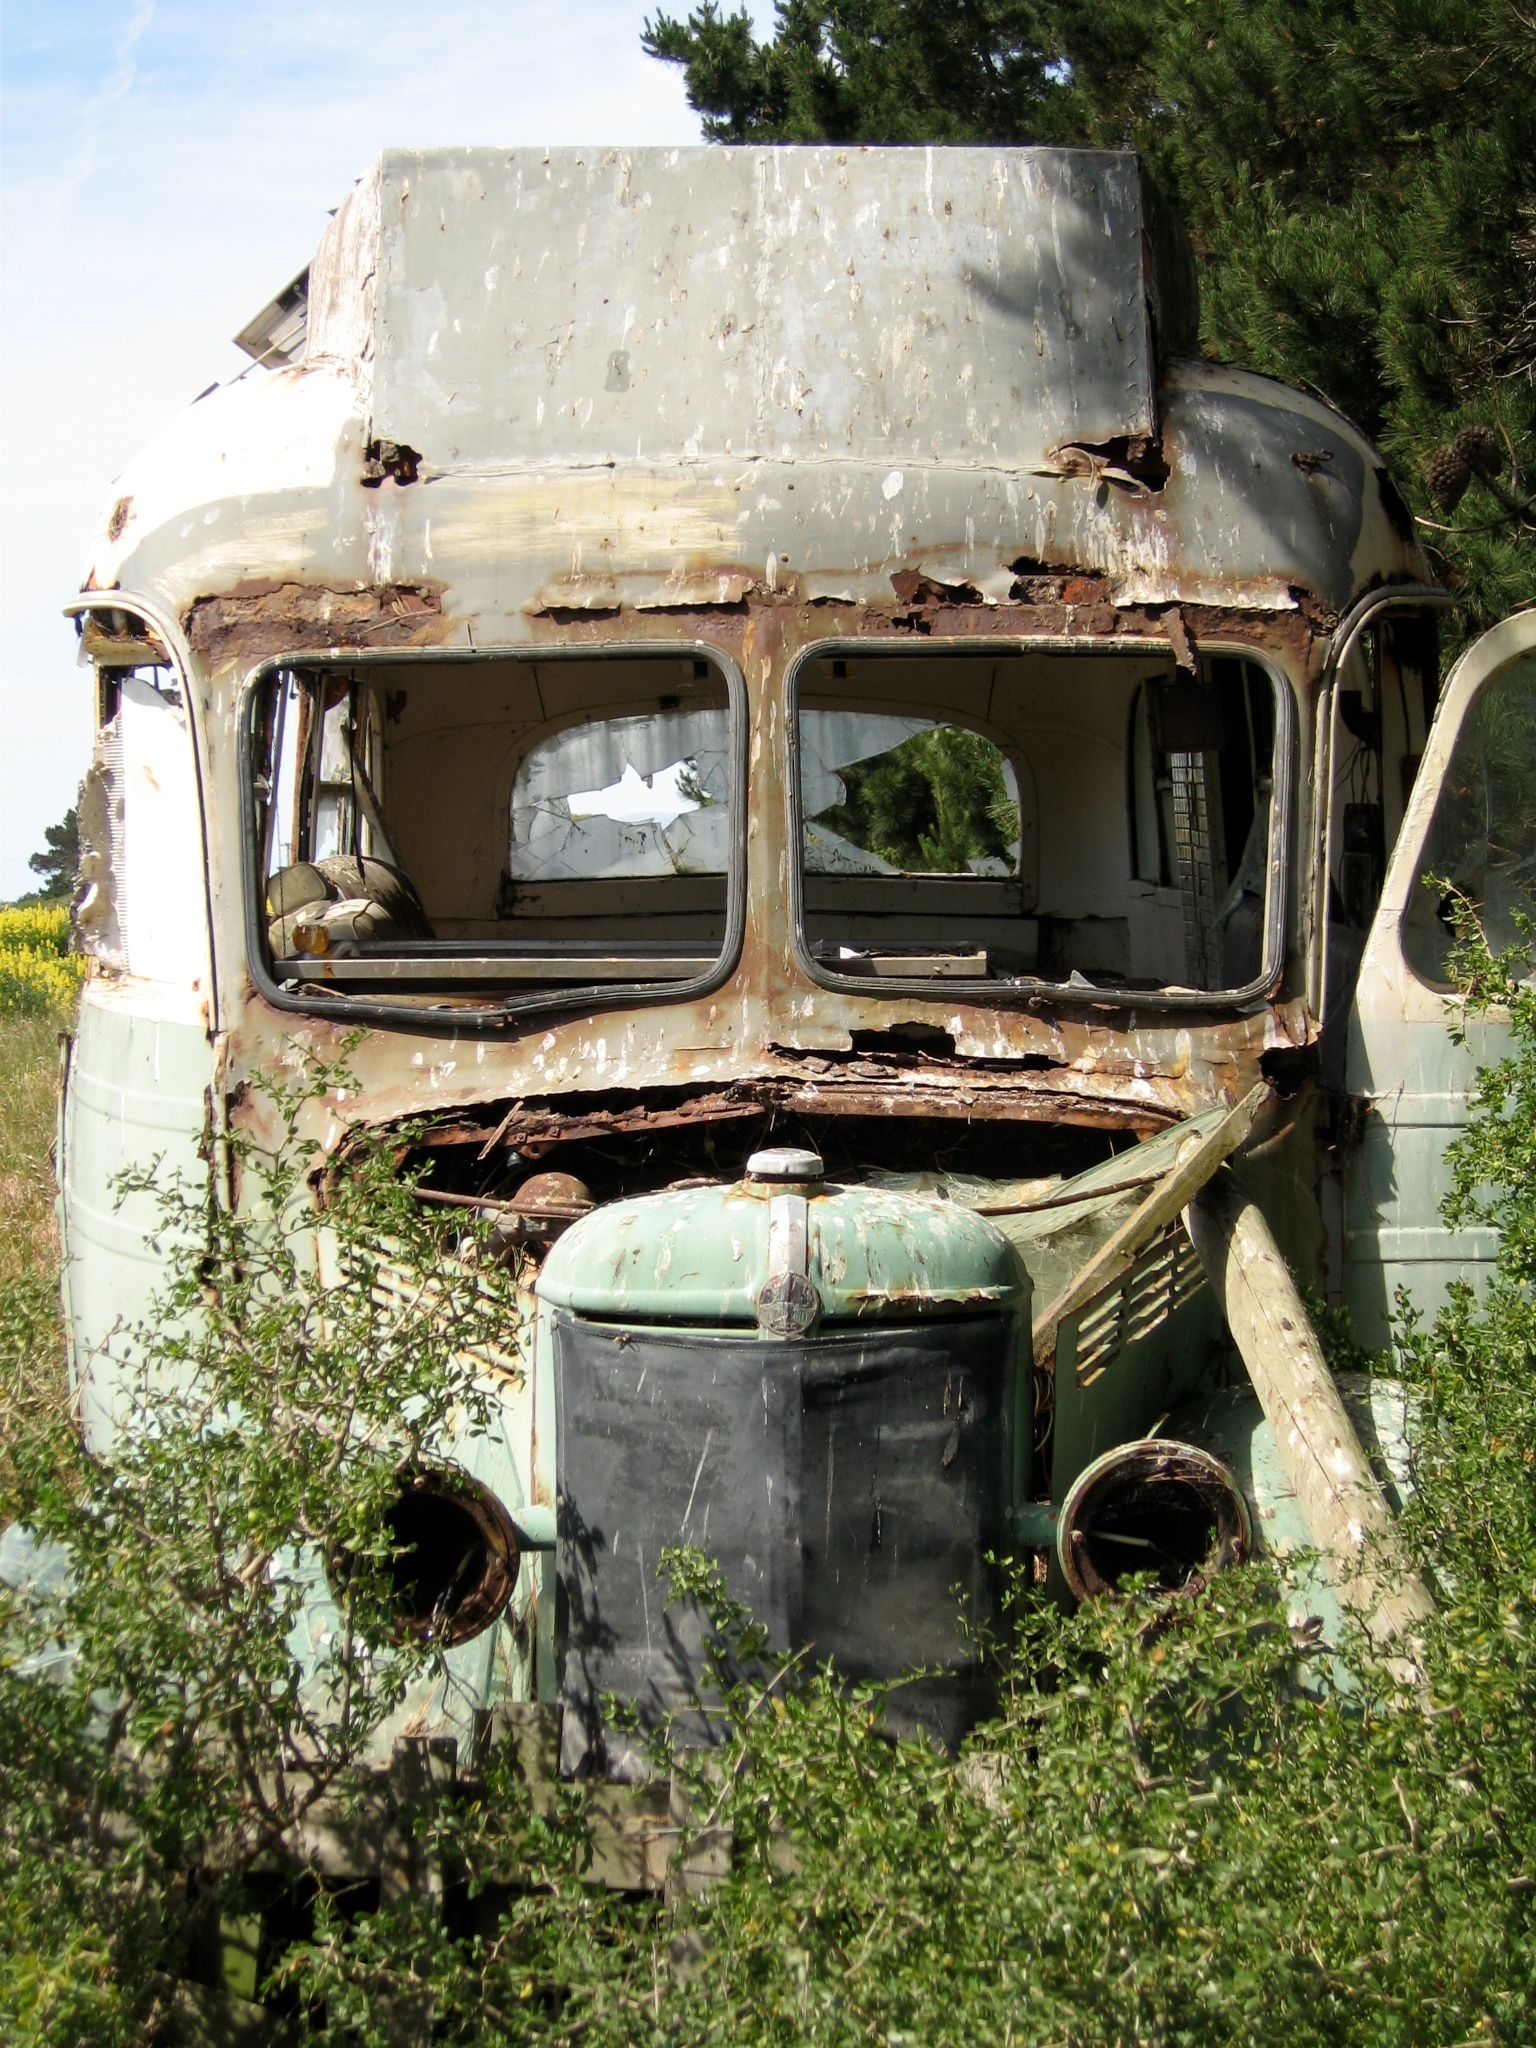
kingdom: Plantae
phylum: Tracheophyta
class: Magnoliopsida
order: Solanales
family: Solanaceae
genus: Lycium
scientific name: Lycium ferocissimum
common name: African boxthorn
